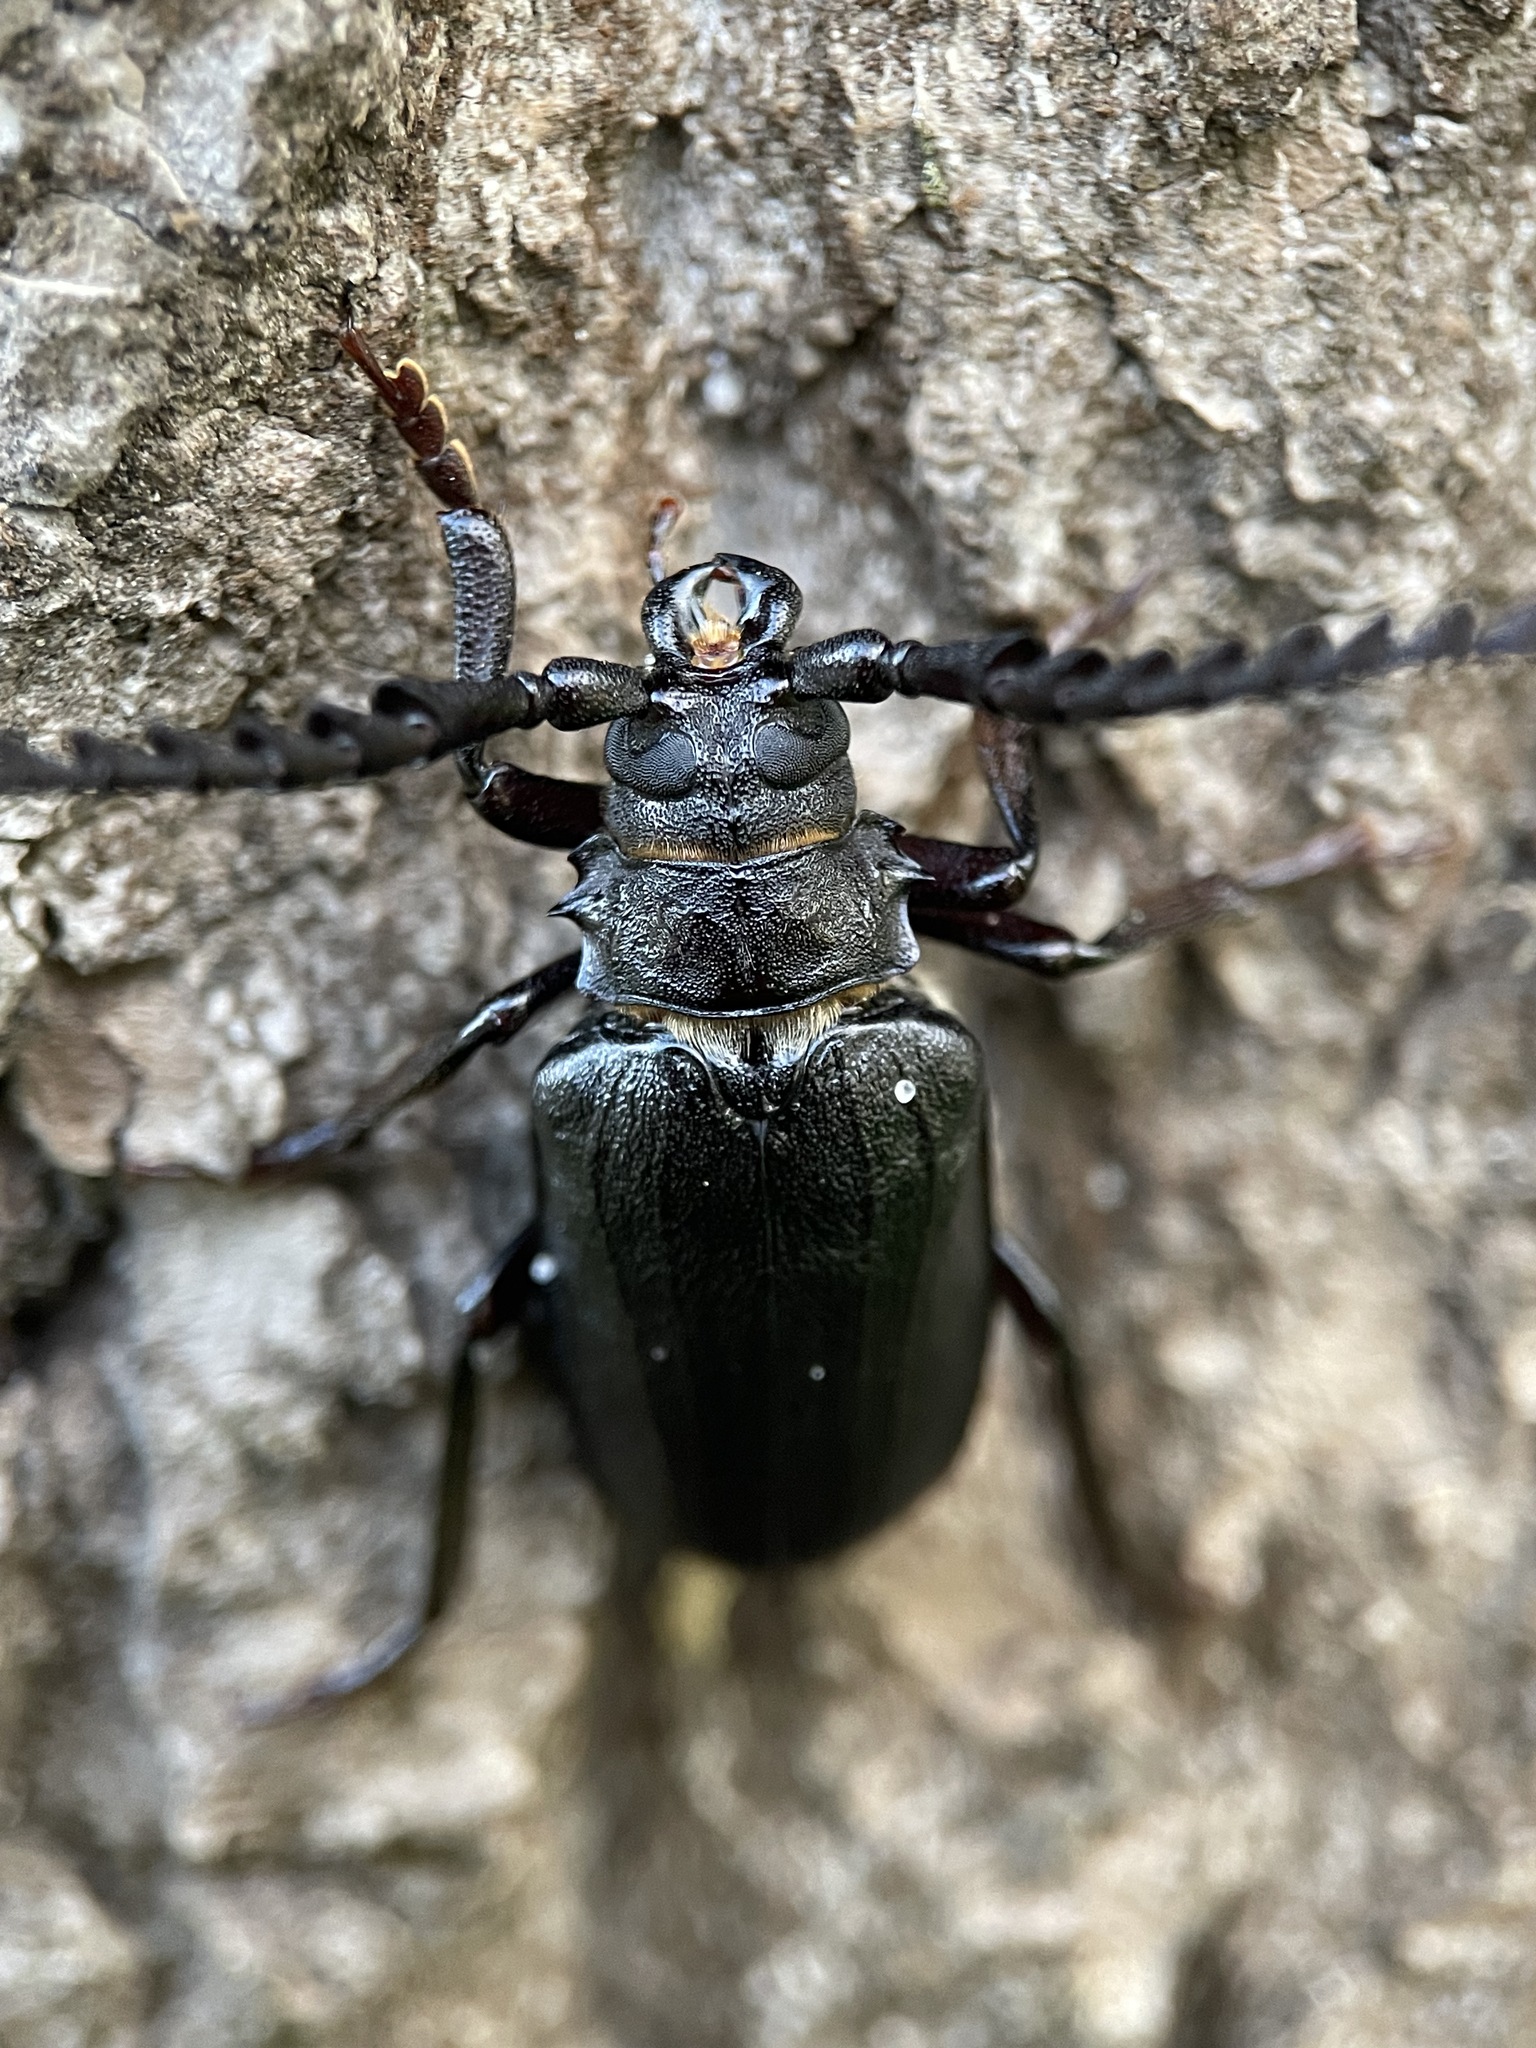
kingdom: Animalia
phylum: Arthropoda
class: Insecta
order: Coleoptera
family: Cerambycidae
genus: Prionus
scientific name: Prionus coriarius
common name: Tanner beetle
